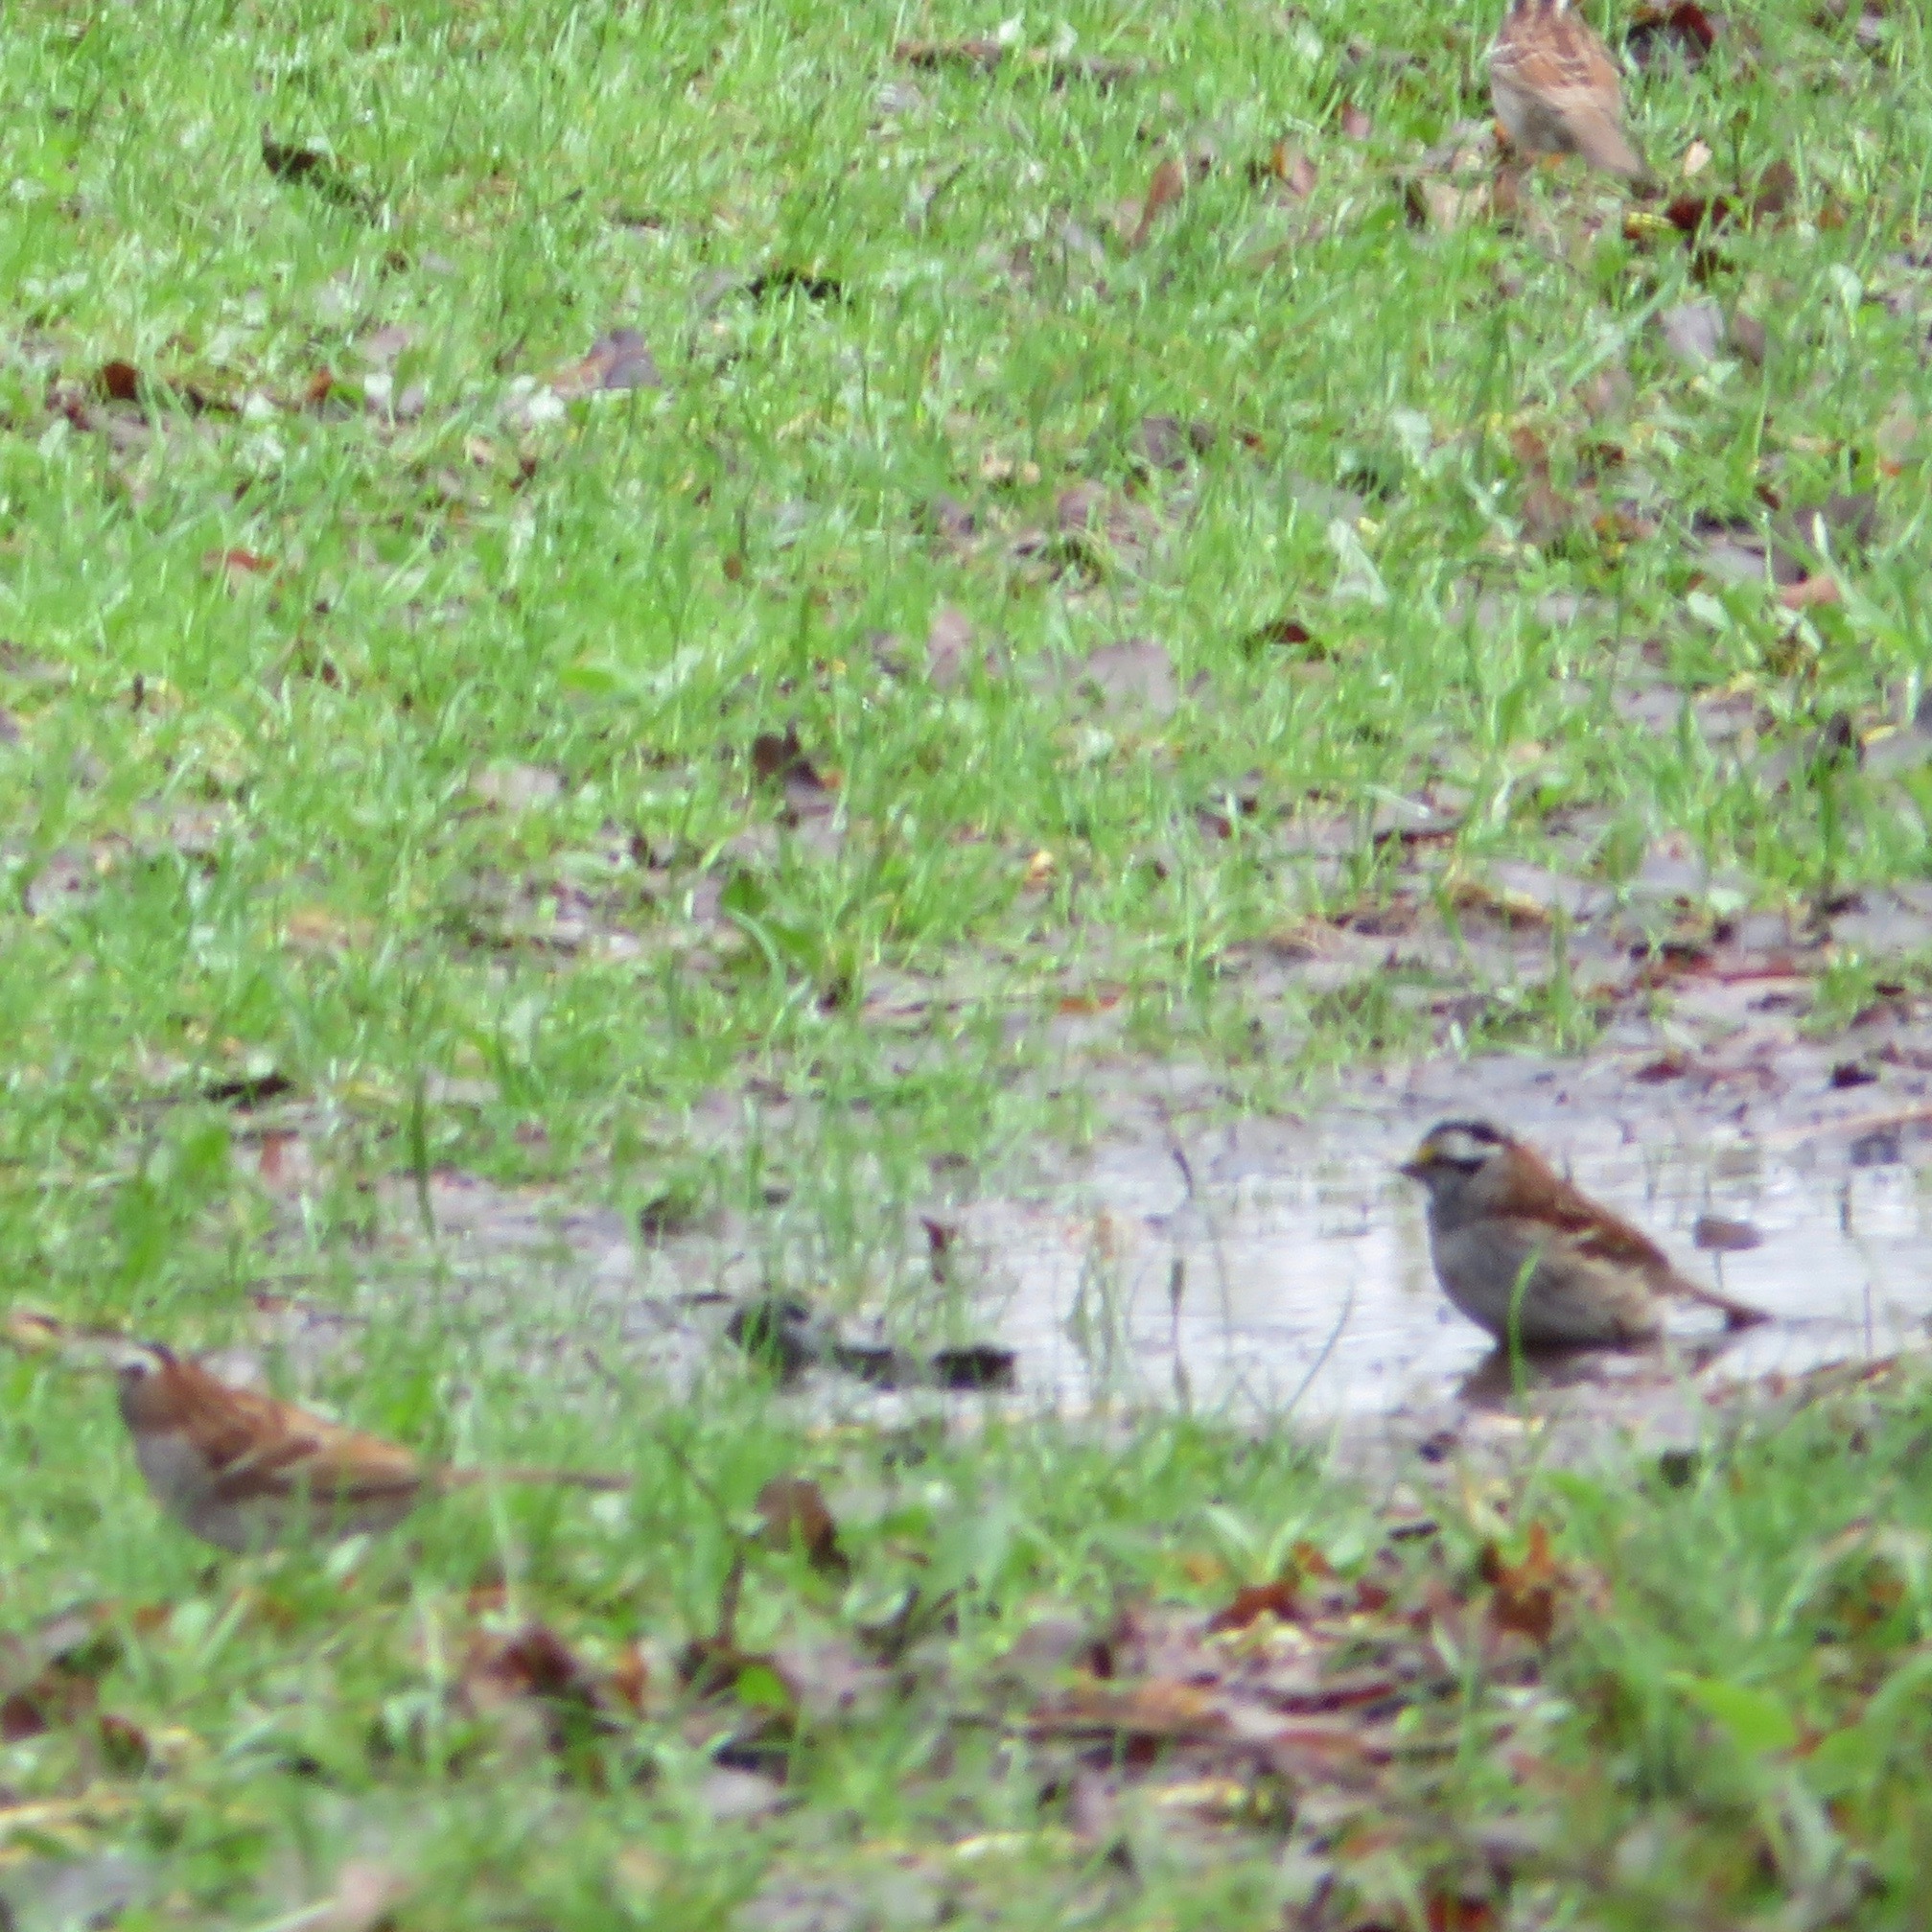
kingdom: Animalia
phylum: Chordata
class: Aves
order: Passeriformes
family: Passerellidae
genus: Zonotrichia
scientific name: Zonotrichia albicollis
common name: White-throated sparrow
